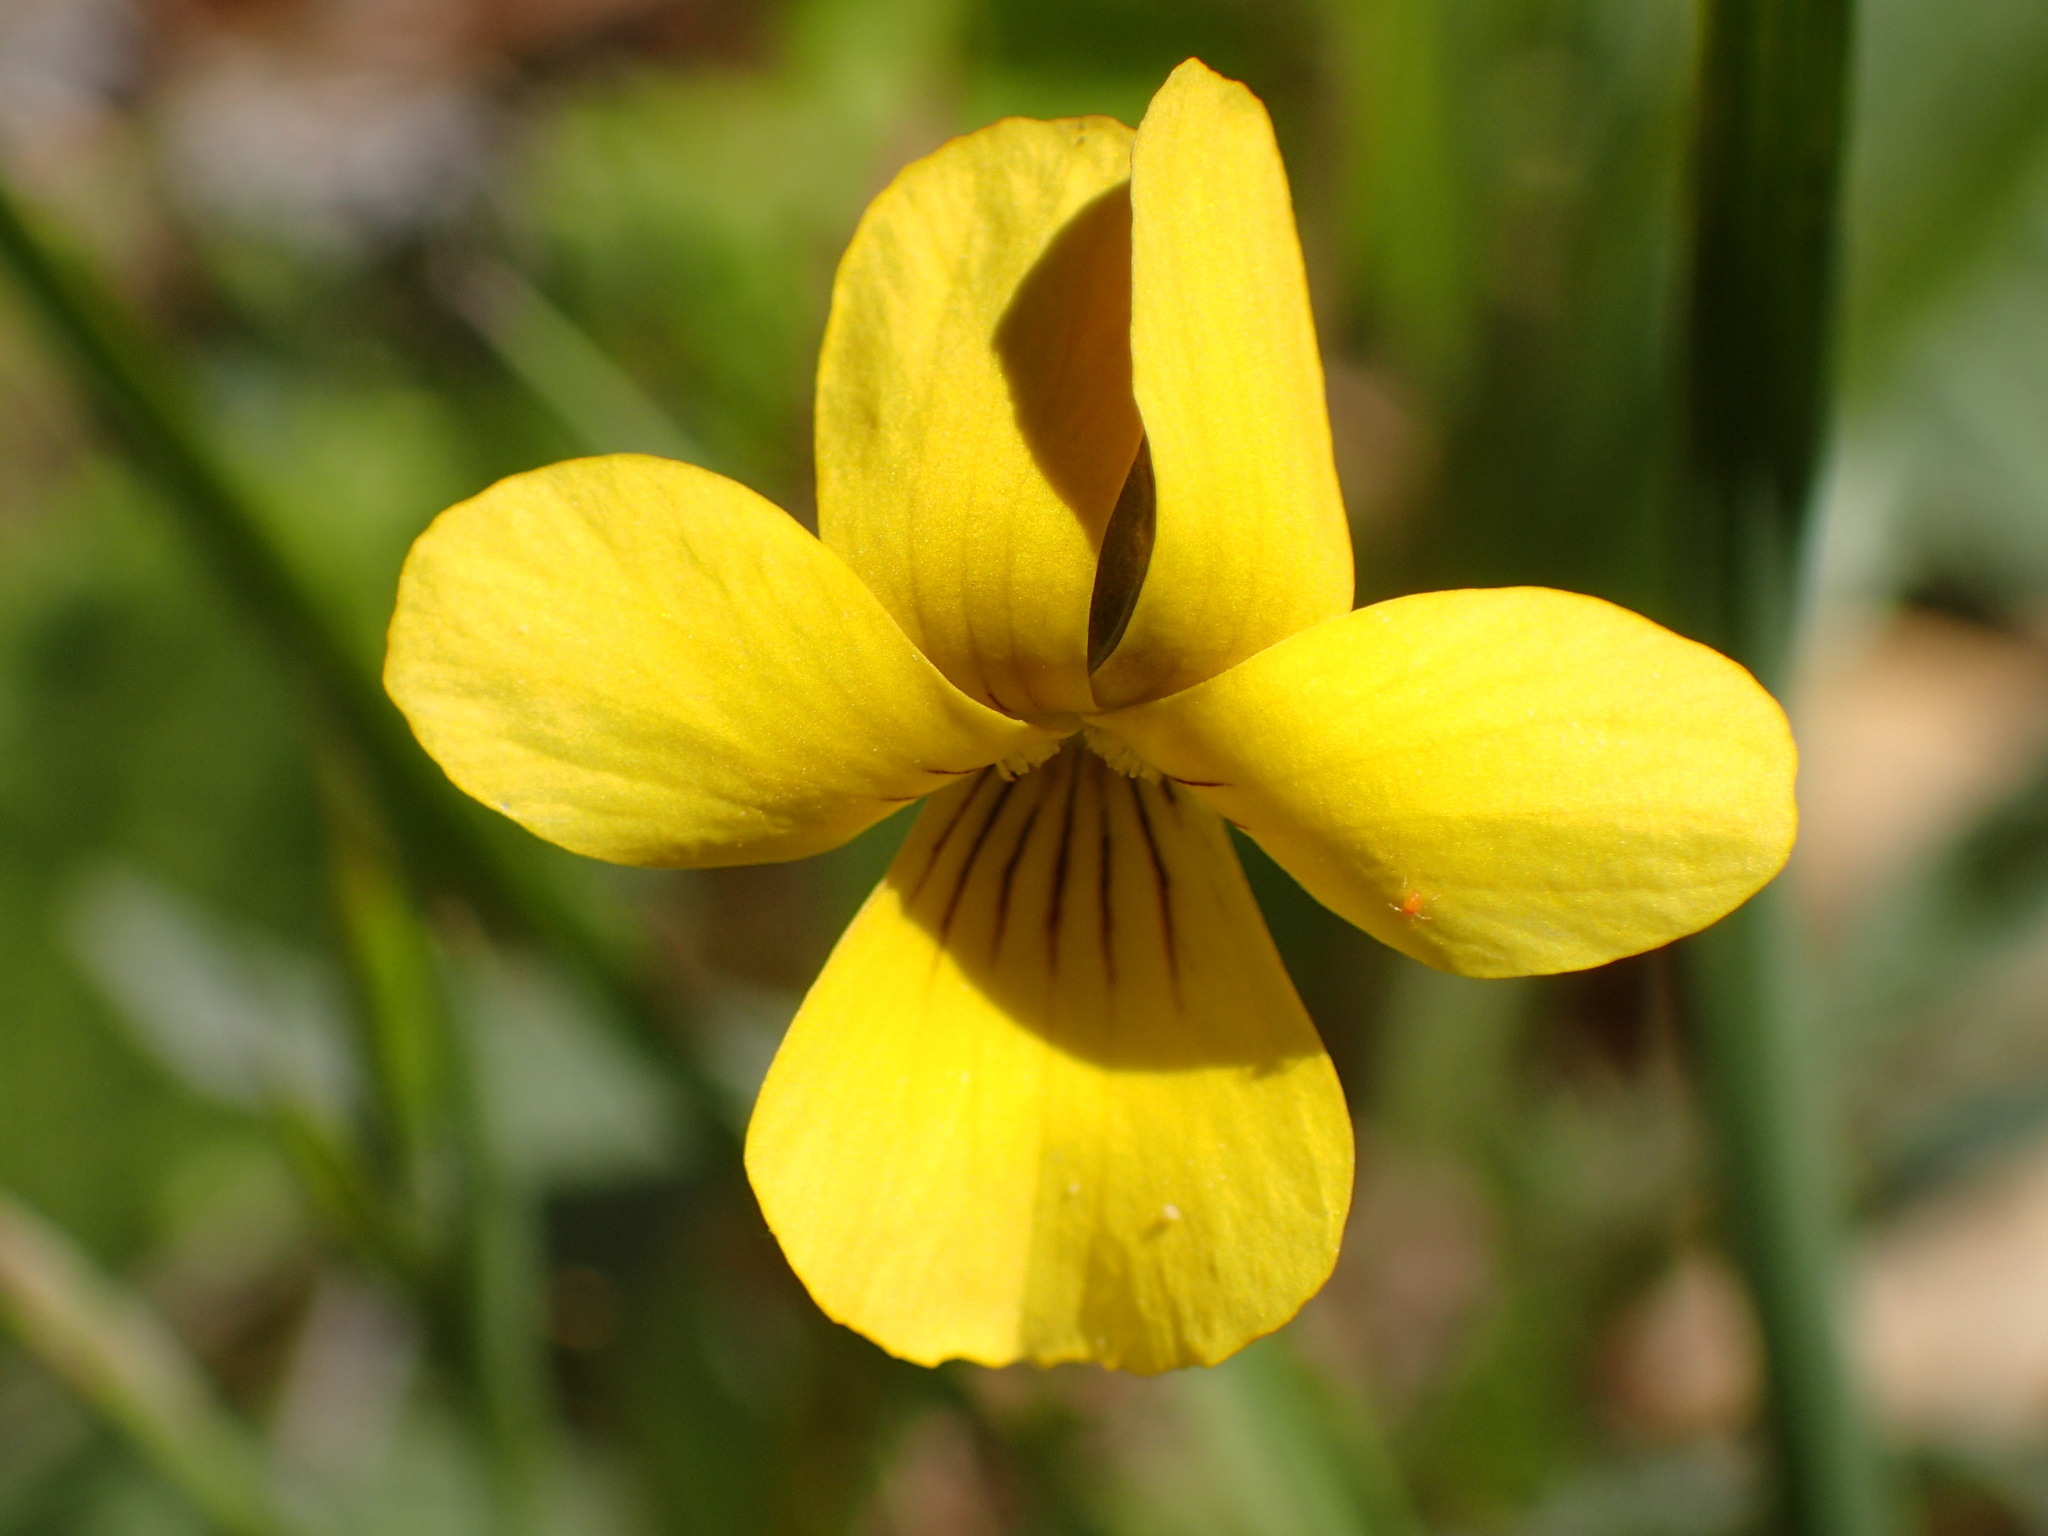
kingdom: Plantae
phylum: Tracheophyta
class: Magnoliopsida
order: Malpighiales
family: Violaceae
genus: Viola
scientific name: Viola purpurea
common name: Pine violet
